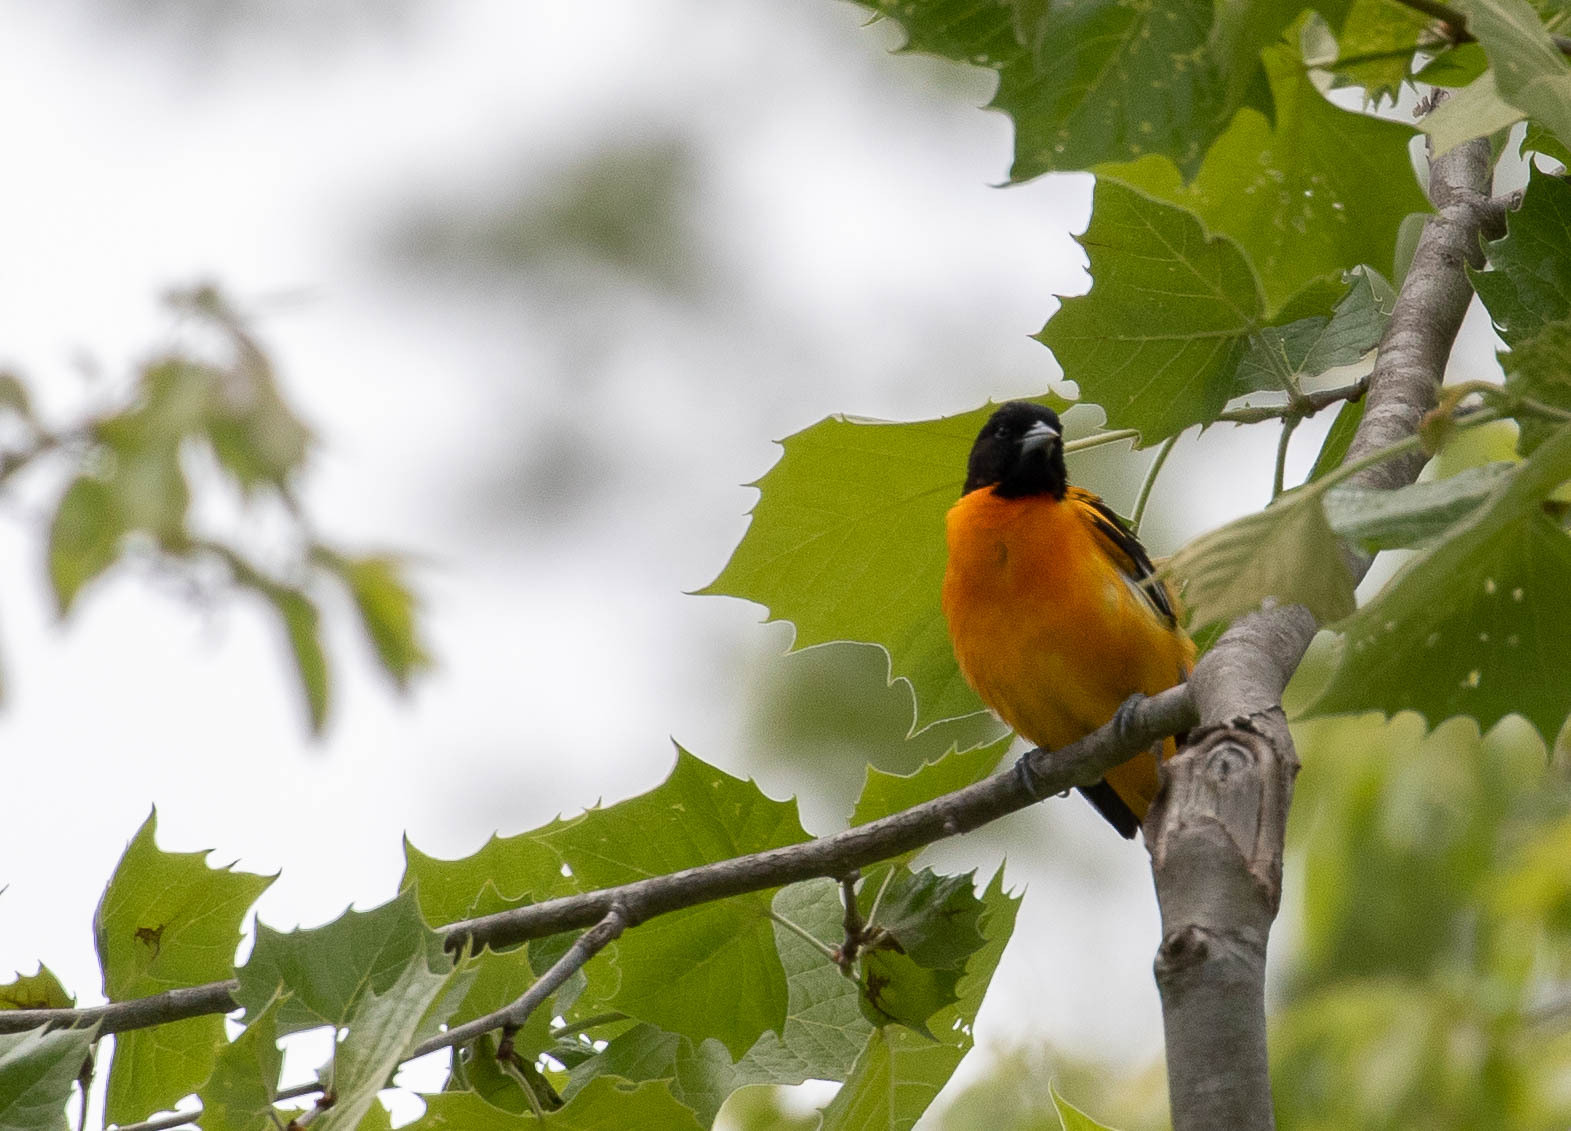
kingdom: Animalia
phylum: Chordata
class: Aves
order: Passeriformes
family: Icteridae
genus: Icterus
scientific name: Icterus galbula
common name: Baltimore oriole
